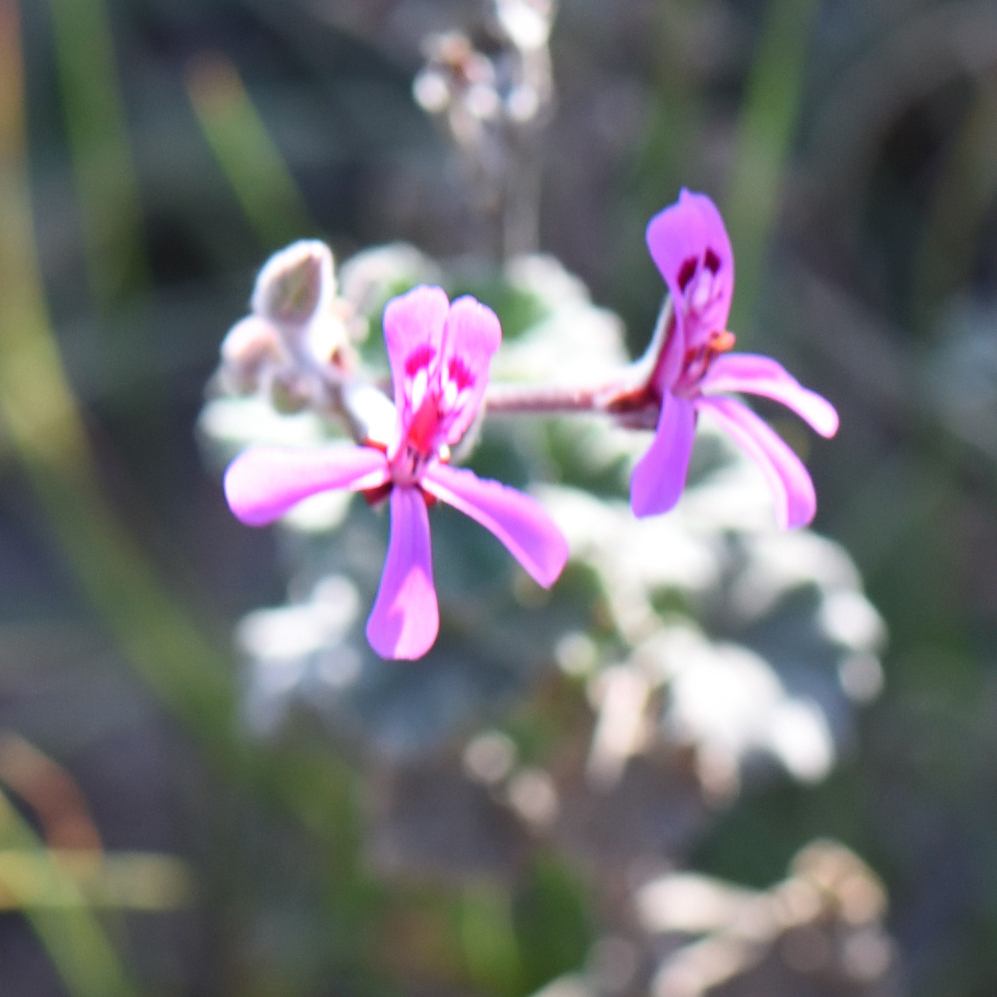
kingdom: Plantae
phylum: Tracheophyta
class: Magnoliopsida
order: Geraniales
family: Geraniaceae
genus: Pelargonium
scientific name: Pelargonium reniforme
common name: Kidney-leaf pelargonium
